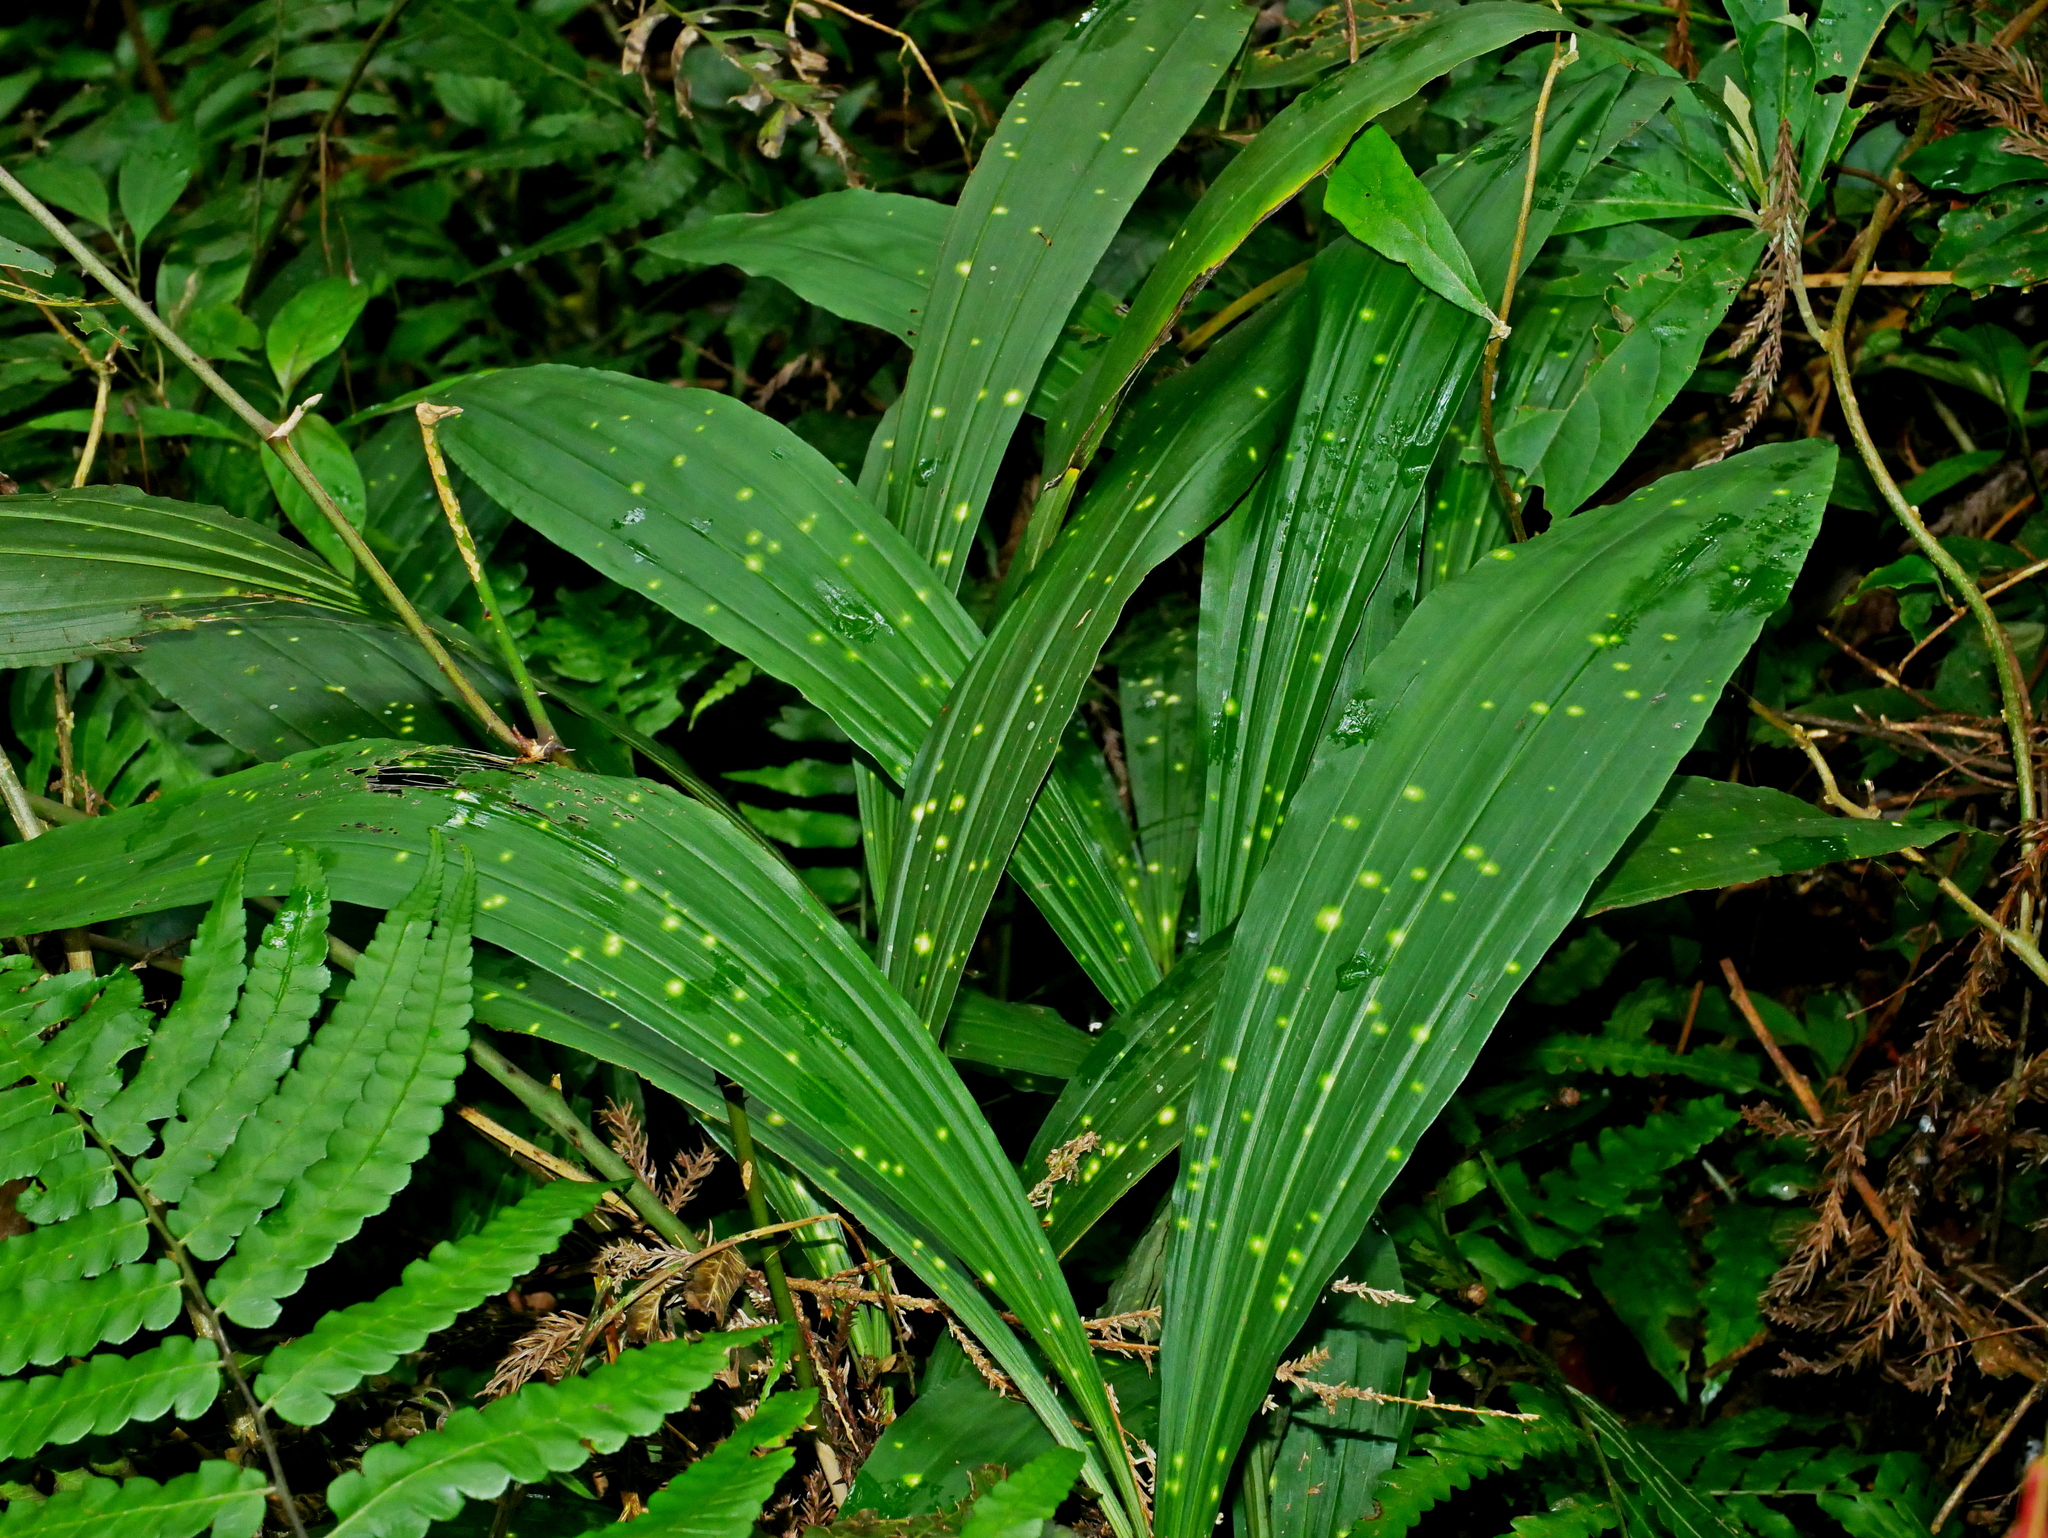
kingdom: Plantae
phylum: Tracheophyta
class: Liliopsida
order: Asparagales
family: Orchidaceae
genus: Calanthe
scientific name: Calanthe woodfordii
